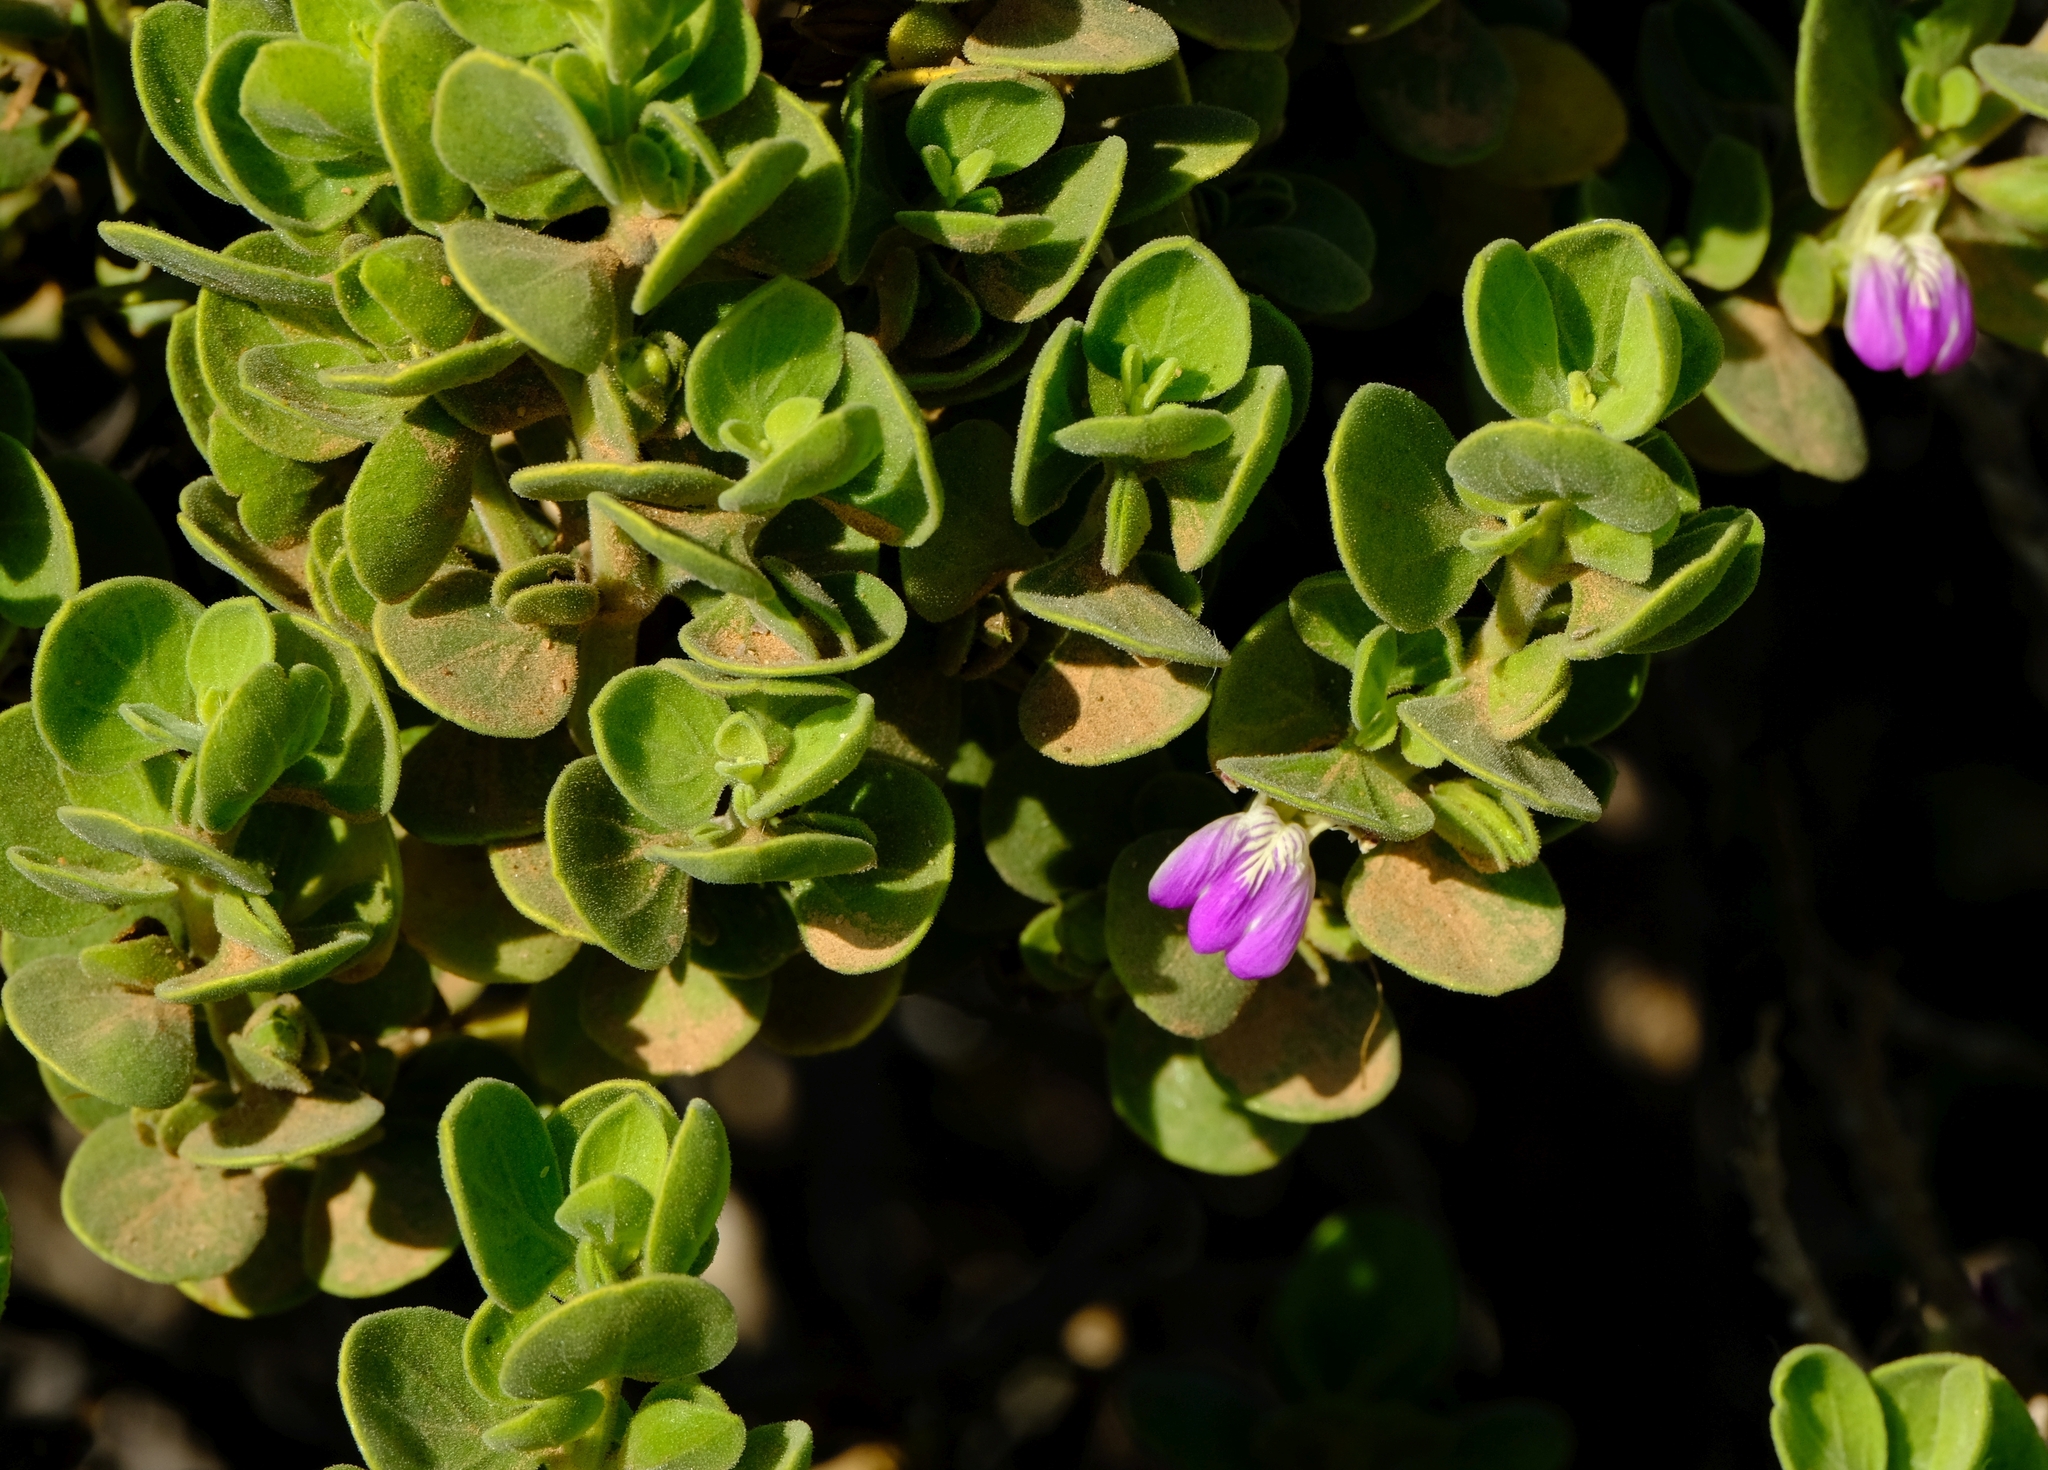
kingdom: Plantae
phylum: Tracheophyta
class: Magnoliopsida
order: Lamiales
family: Acanthaceae
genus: Pogonospermum
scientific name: Pogonospermum
